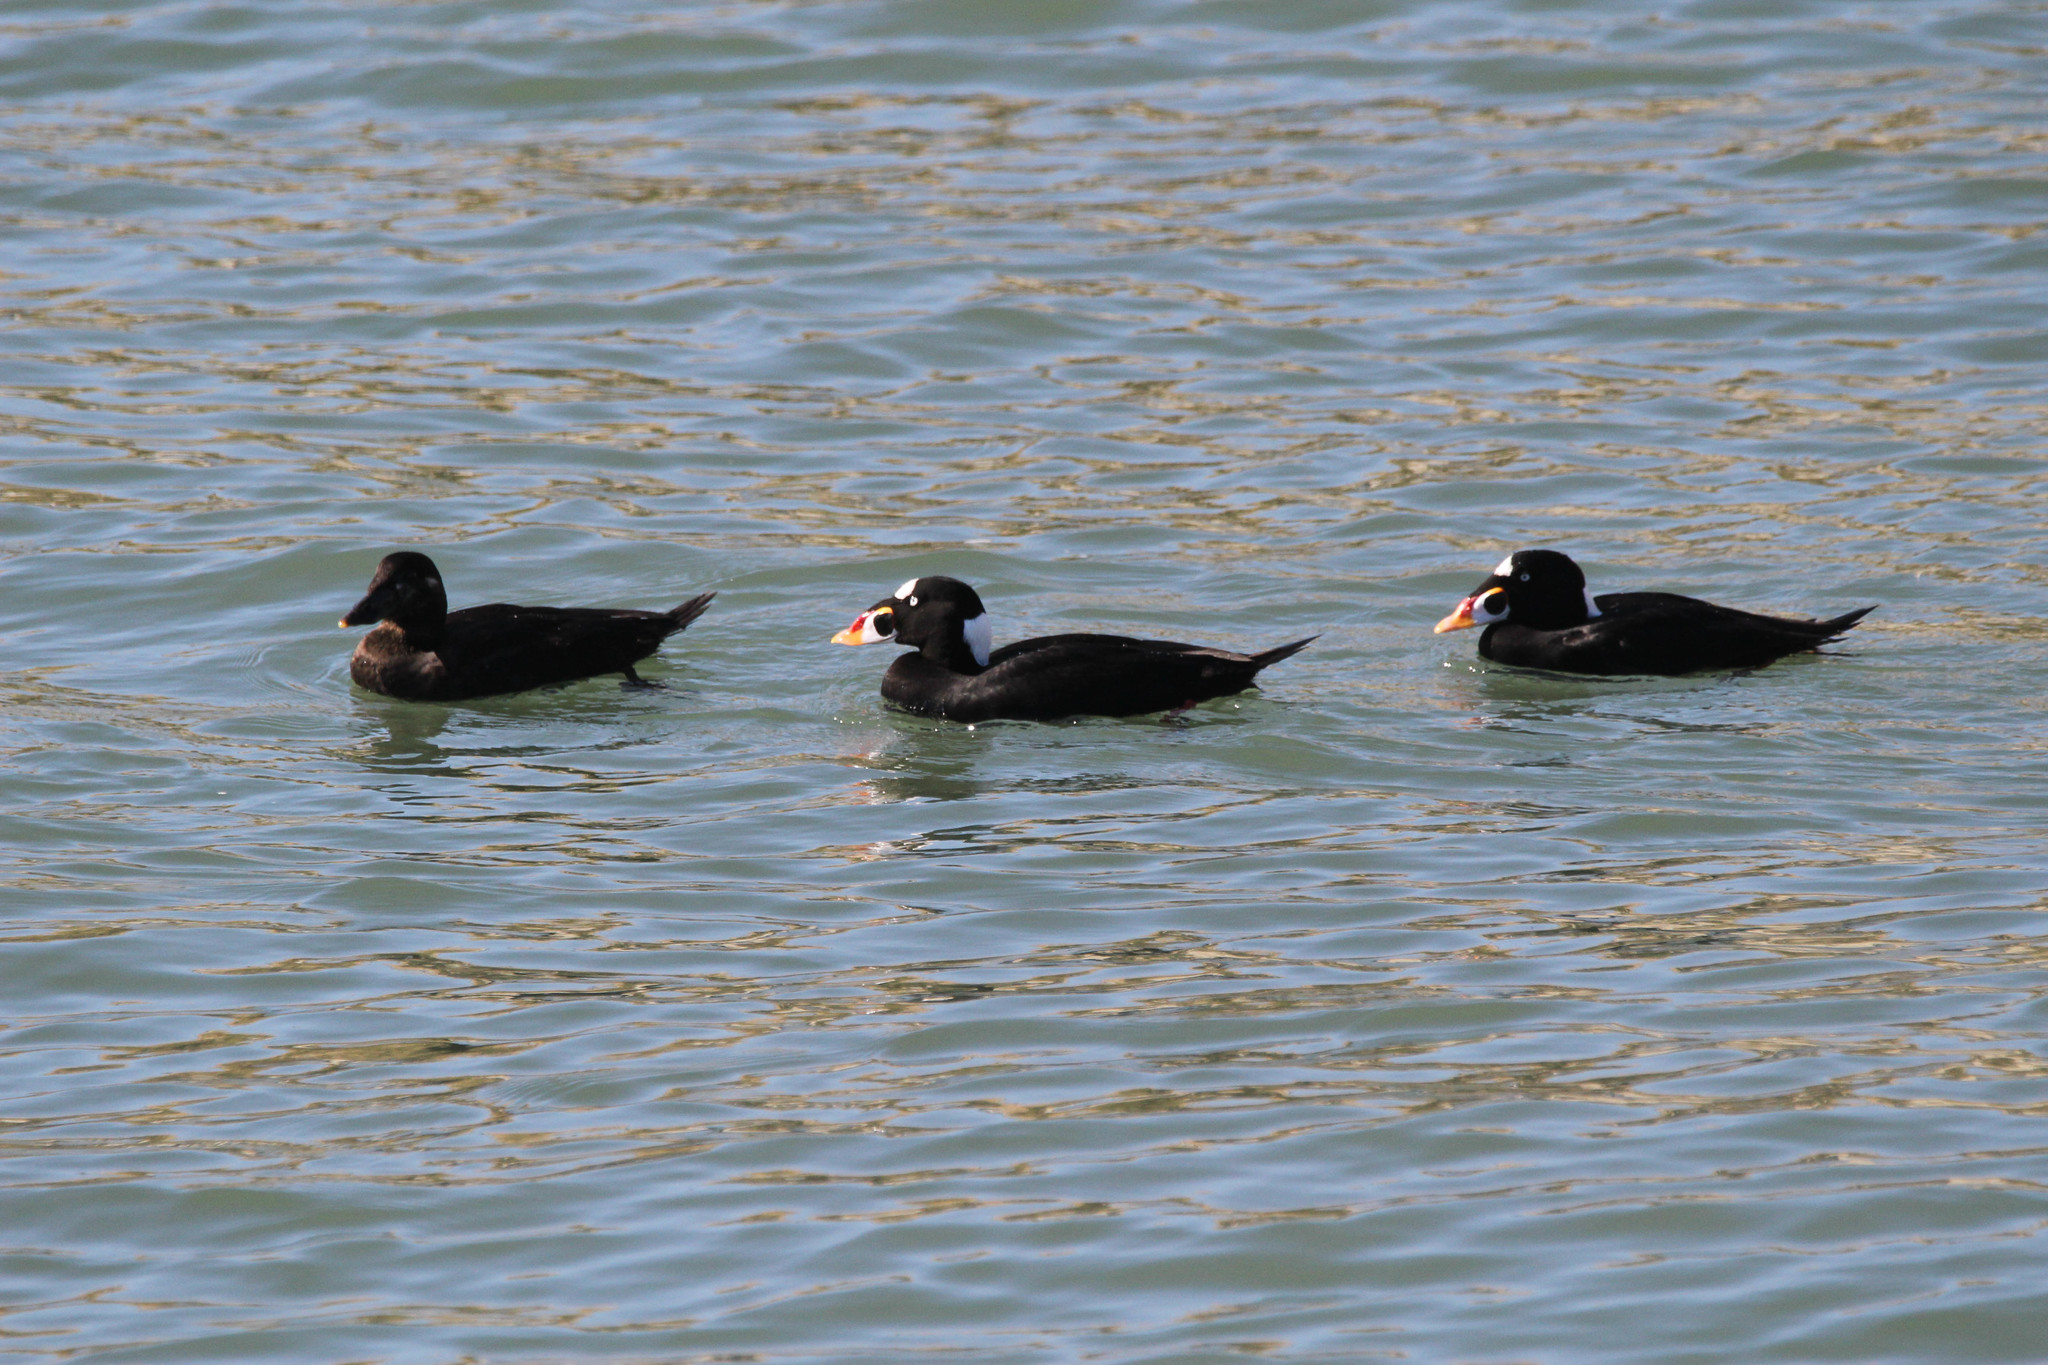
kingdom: Animalia
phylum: Chordata
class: Aves
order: Anseriformes
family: Anatidae
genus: Melanitta
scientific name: Melanitta perspicillata
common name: Surf scoter
